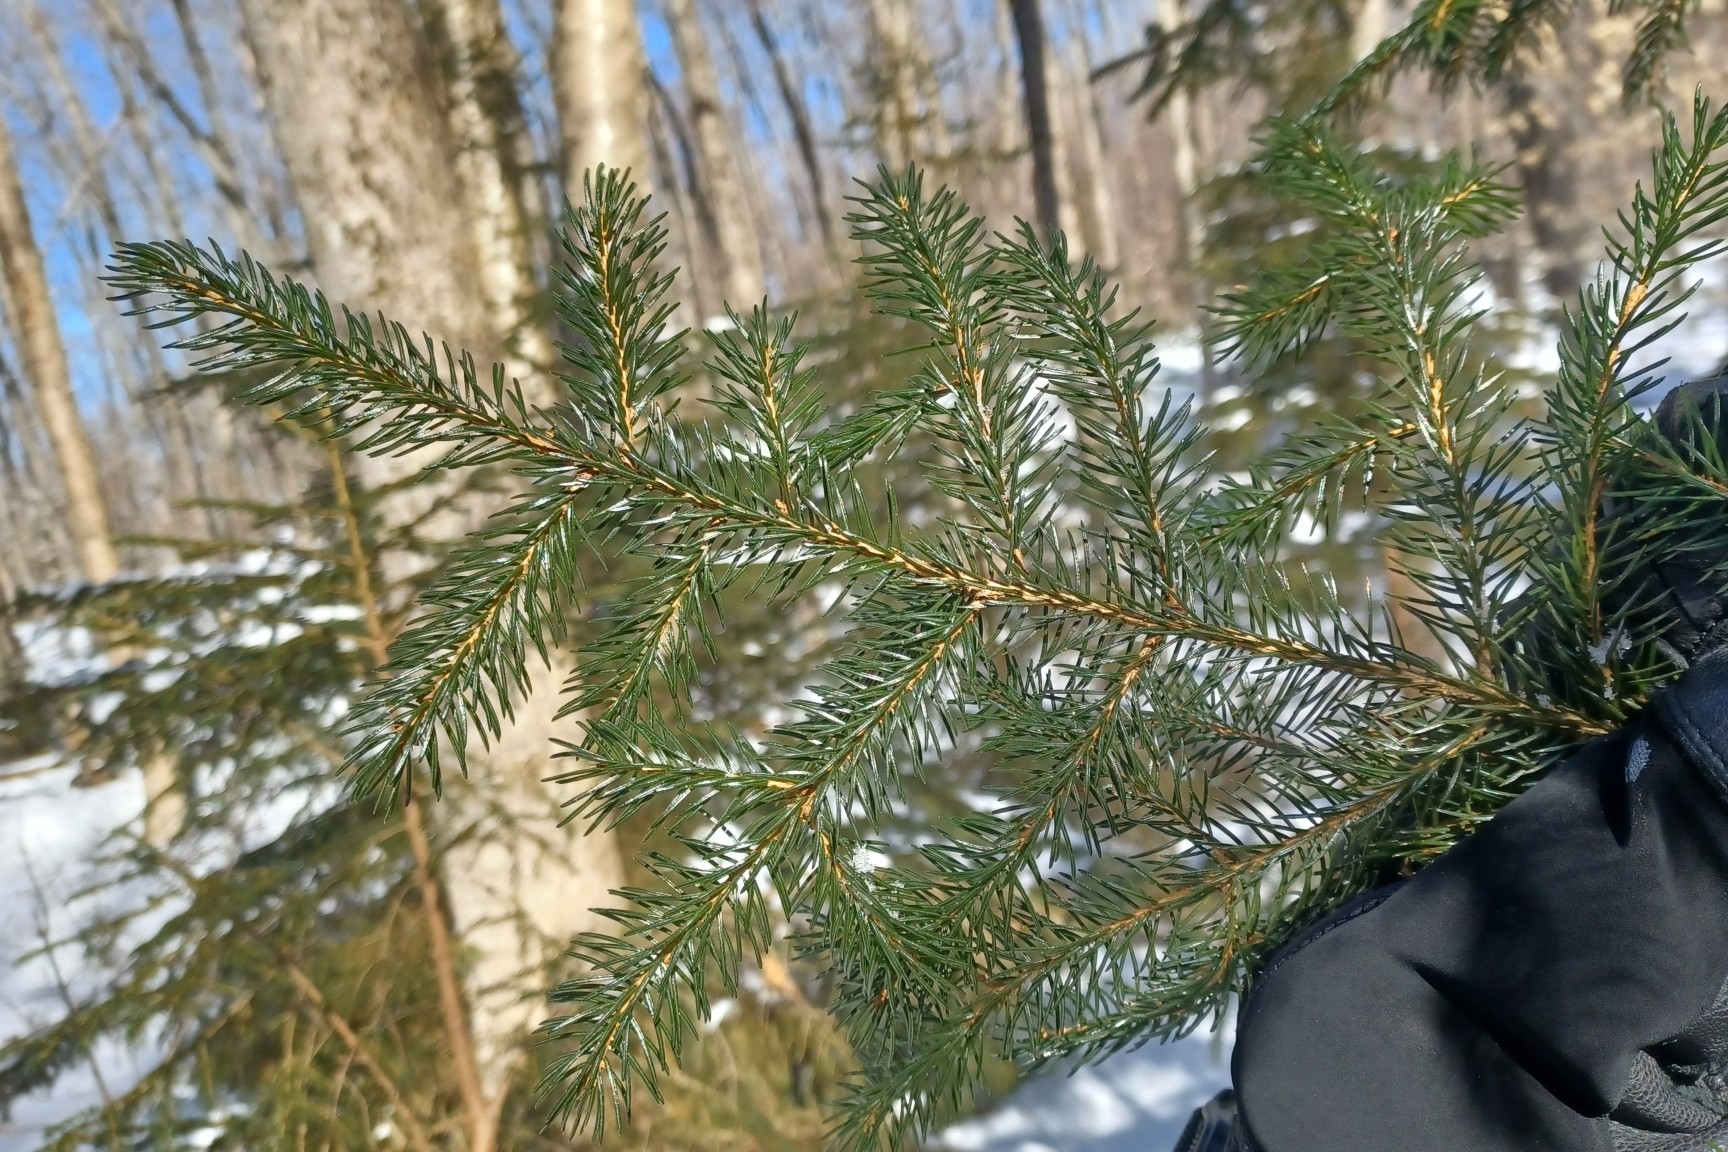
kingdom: Plantae
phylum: Tracheophyta
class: Pinopsida
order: Pinales
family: Pinaceae
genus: Picea
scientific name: Picea rubens
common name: Red spruce
